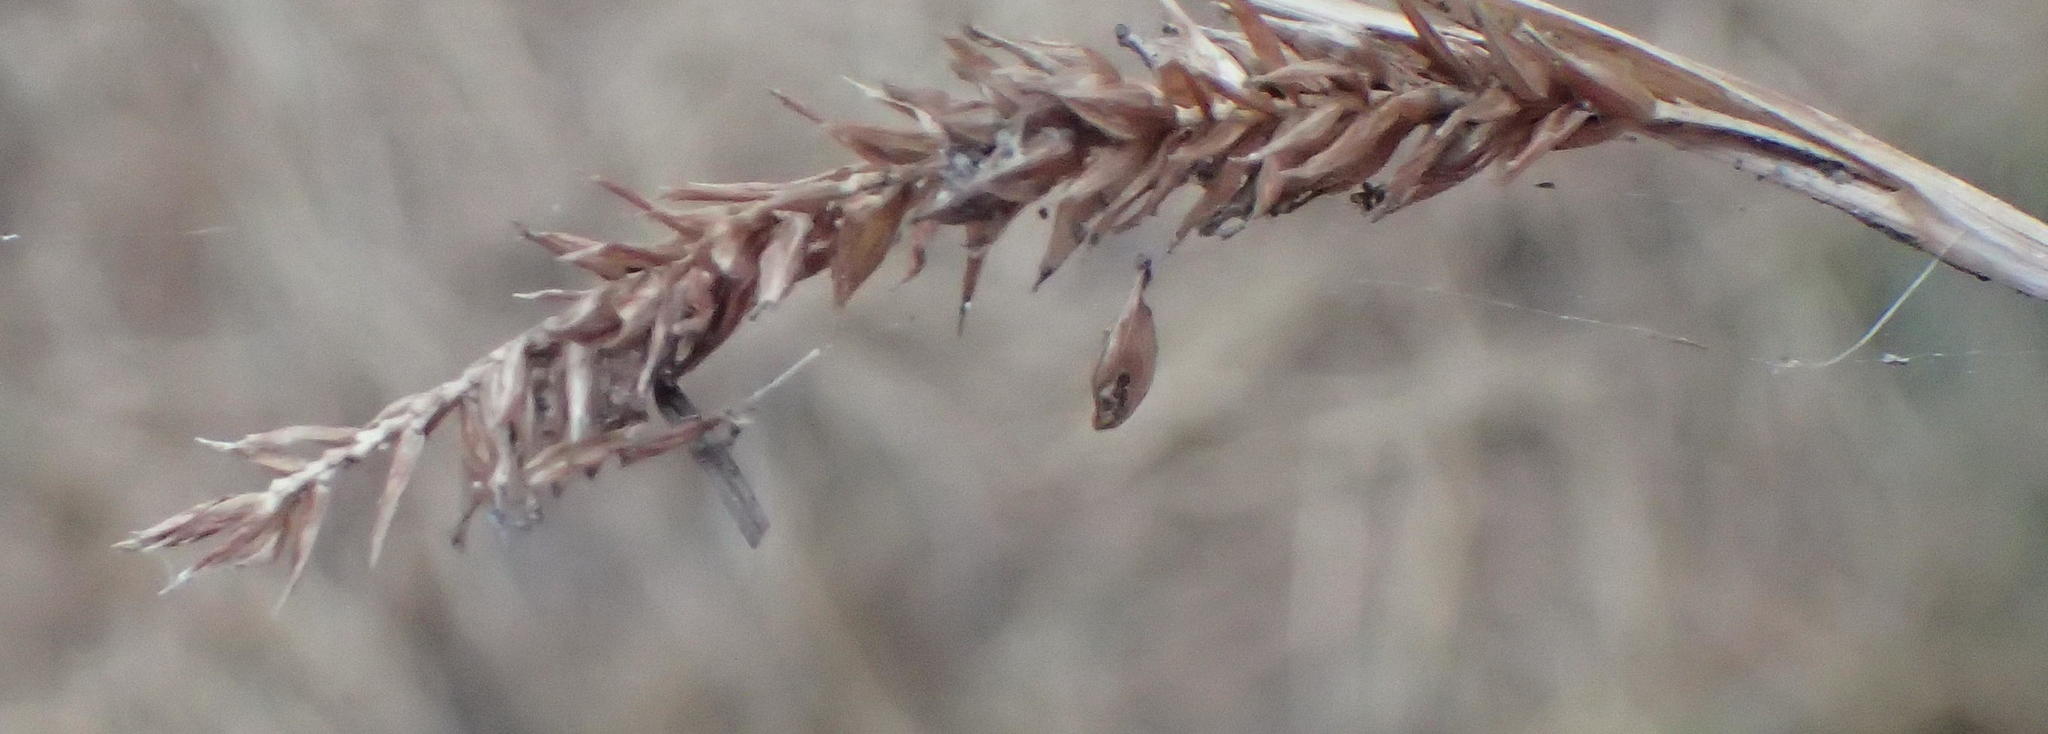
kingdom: Plantae
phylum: Tracheophyta
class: Liliopsida
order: Poales
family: Cyperaceae
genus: Carex
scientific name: Carex aethiopica
